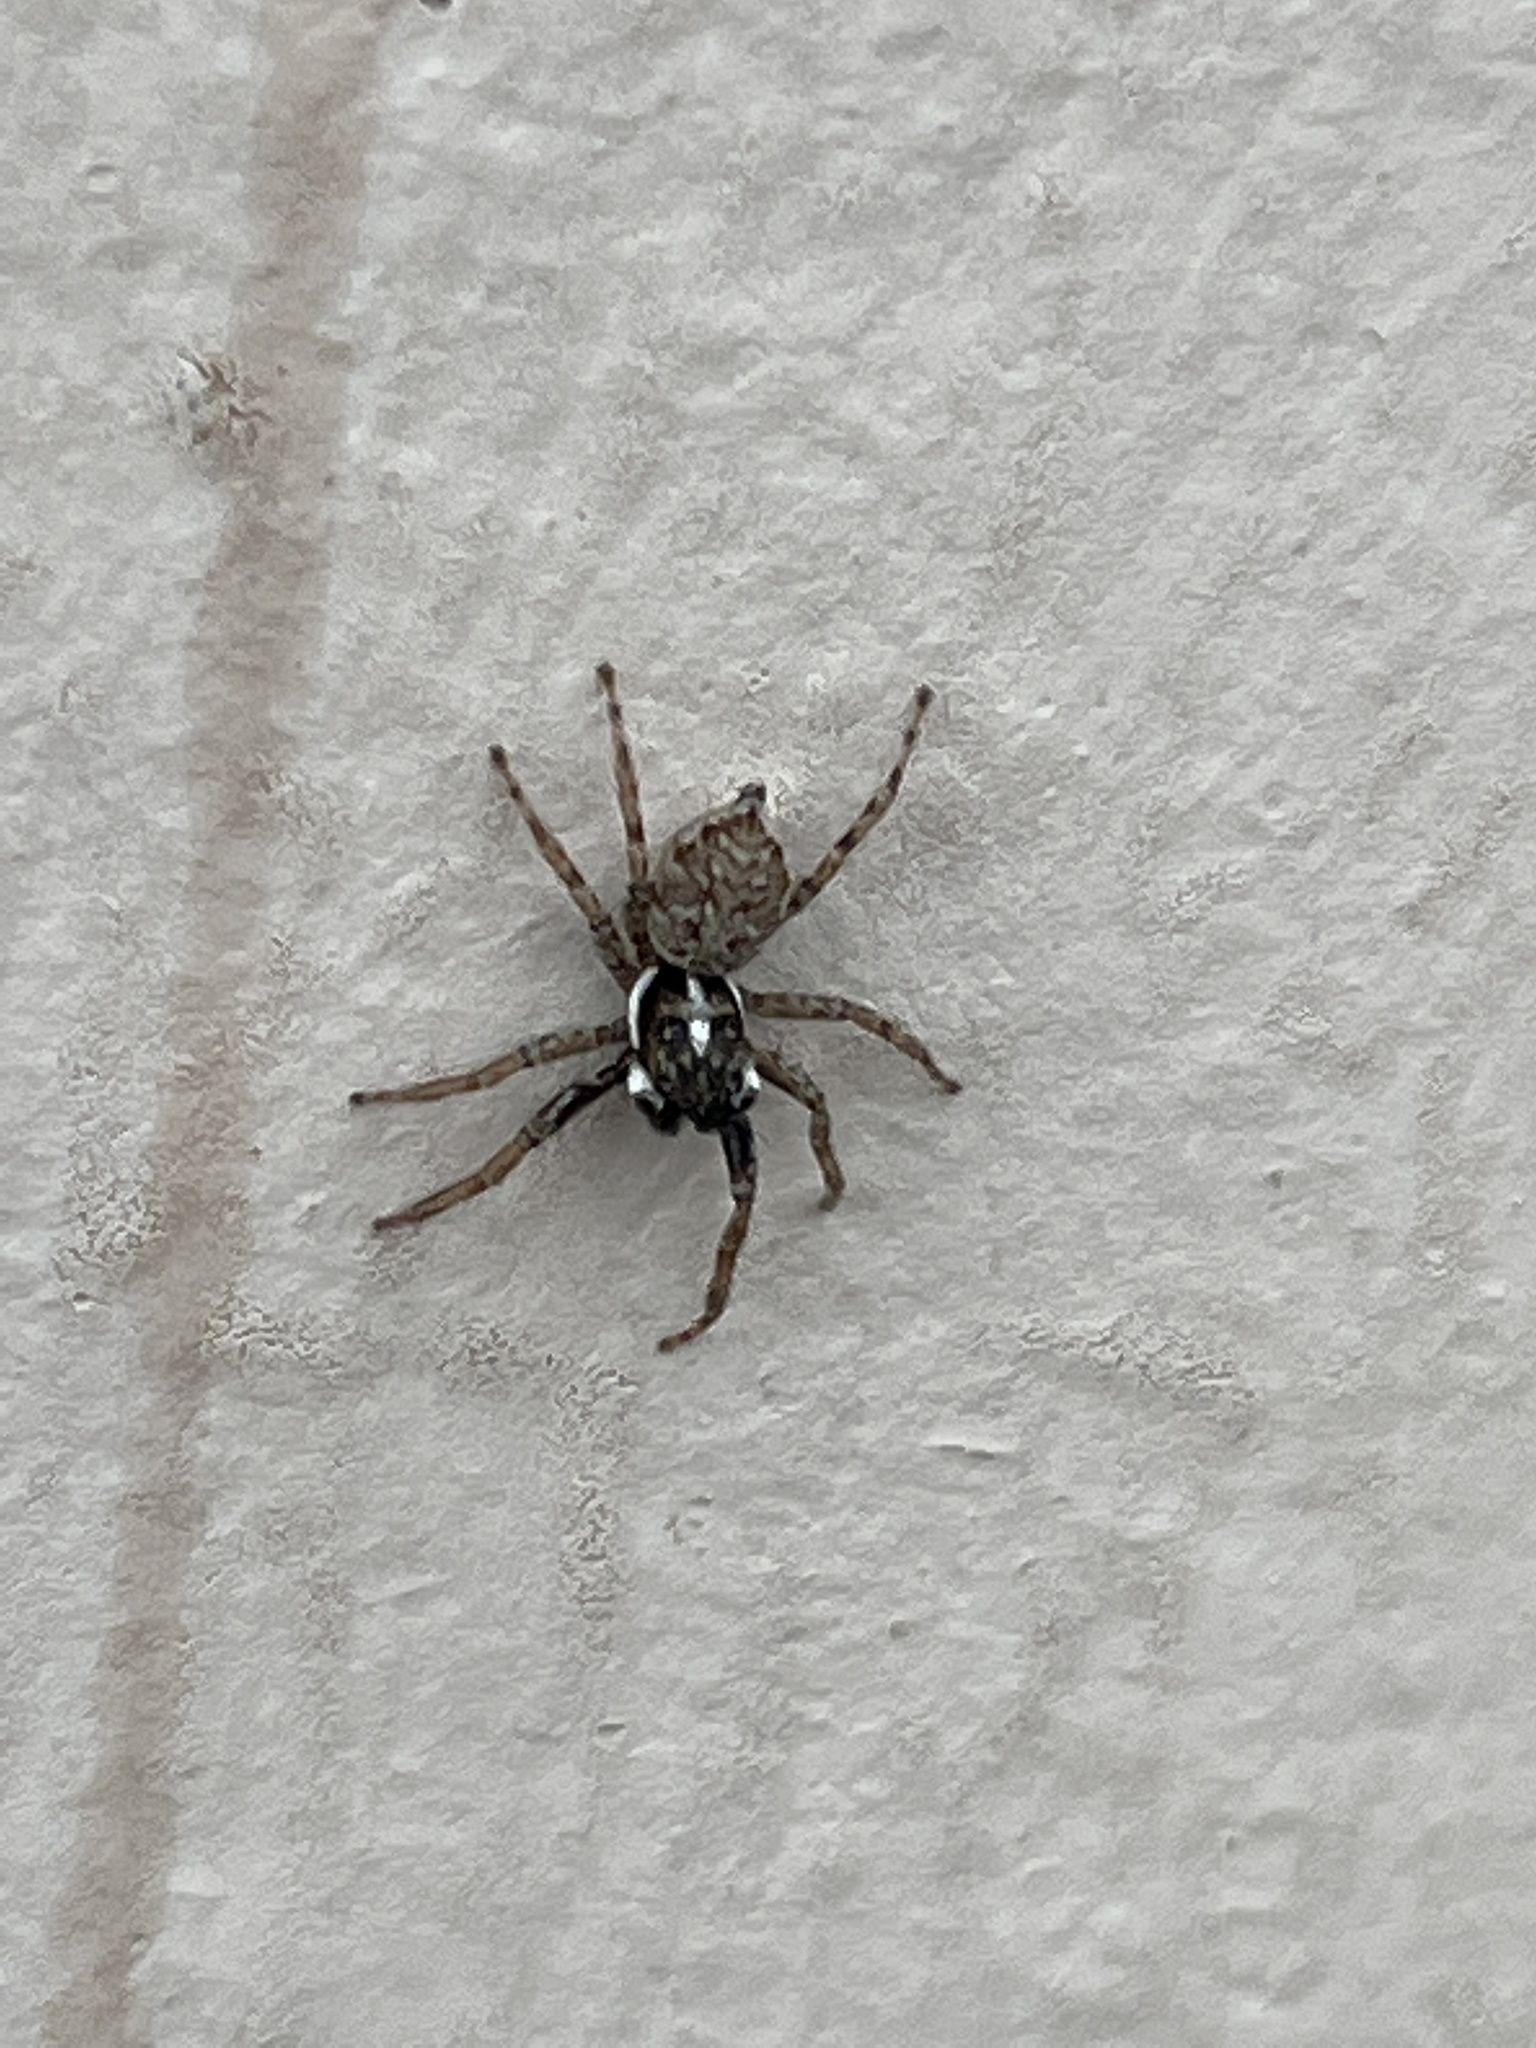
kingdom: Animalia
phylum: Arthropoda
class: Arachnida
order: Araneae
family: Salticidae
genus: Menemerus
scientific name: Menemerus semilimbatus
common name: Jumping spider
